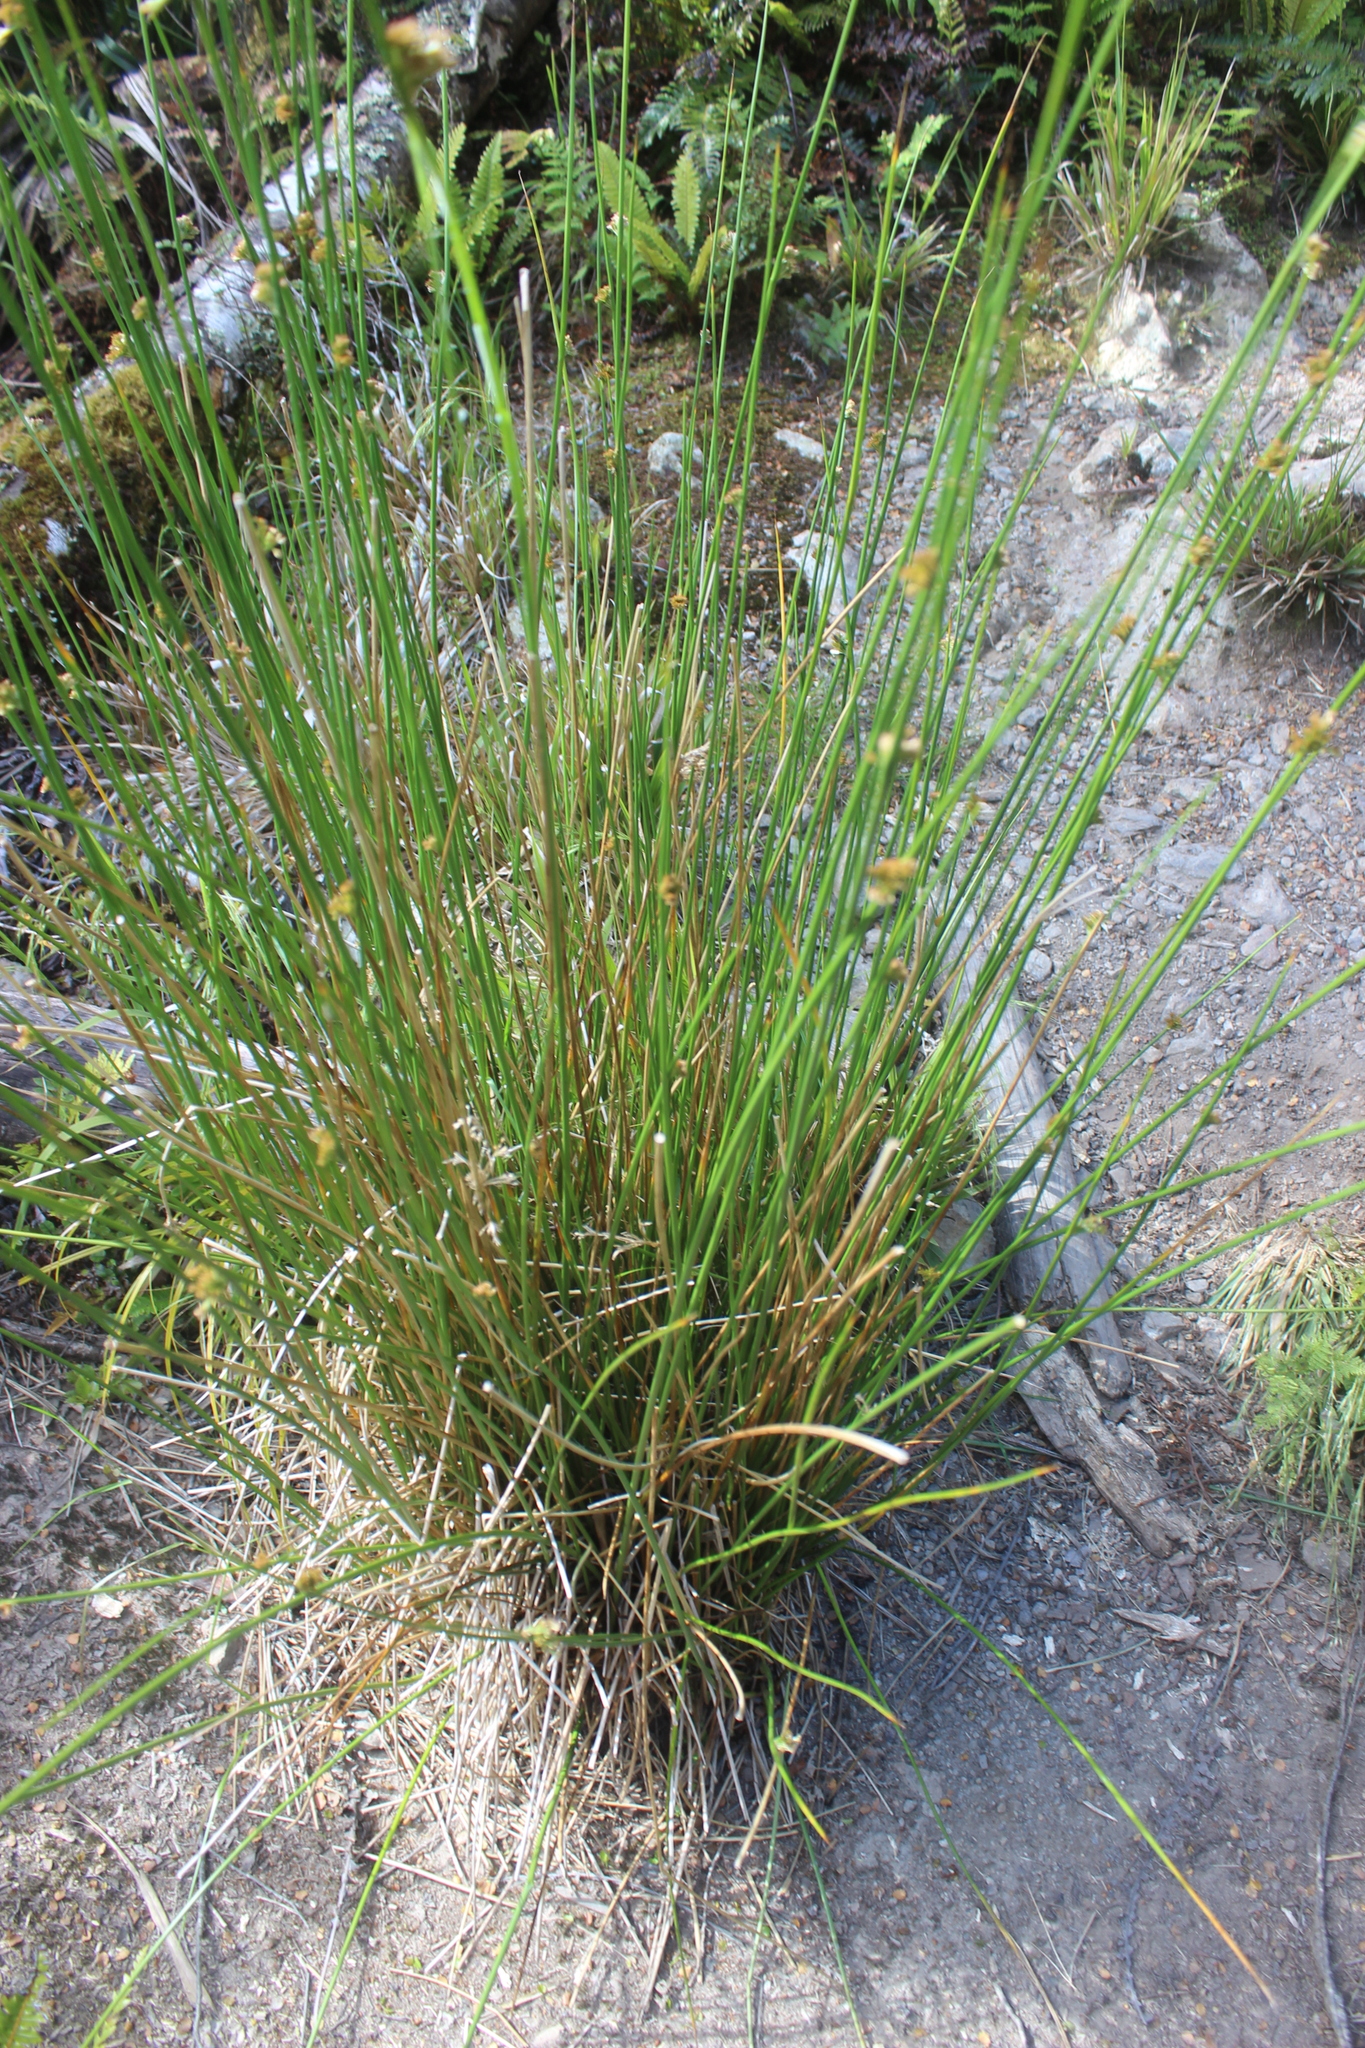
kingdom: Plantae
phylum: Tracheophyta
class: Liliopsida
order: Poales
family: Juncaceae
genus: Juncus
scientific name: Juncus effusus
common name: Soft rush
